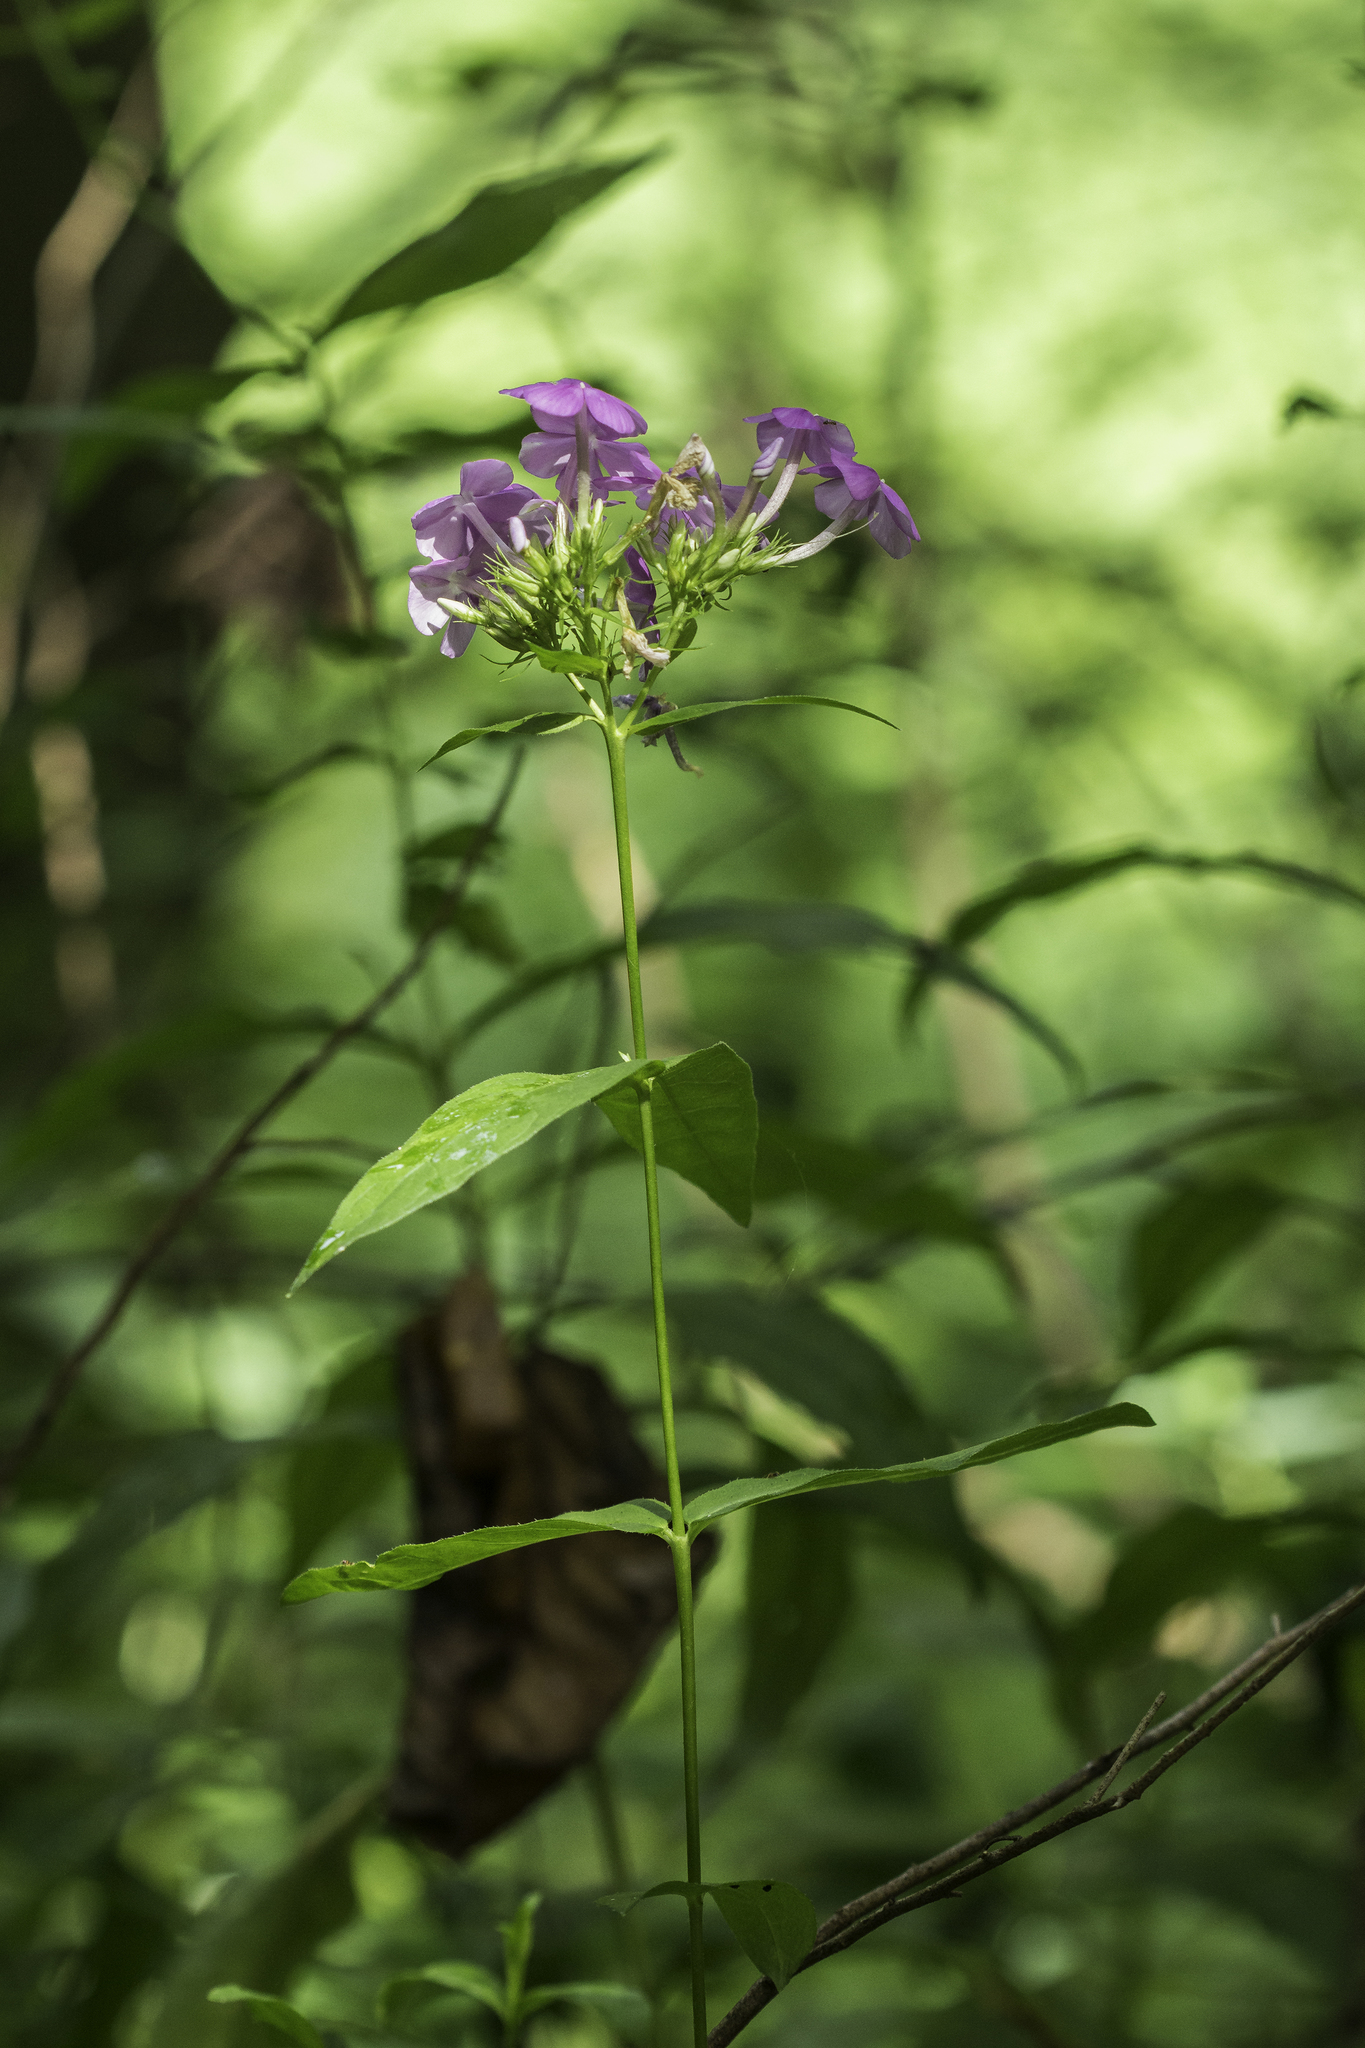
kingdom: Plantae
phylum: Tracheophyta
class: Magnoliopsida
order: Ericales
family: Polemoniaceae
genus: Phlox
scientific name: Phlox paniculata
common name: Fall phlox
